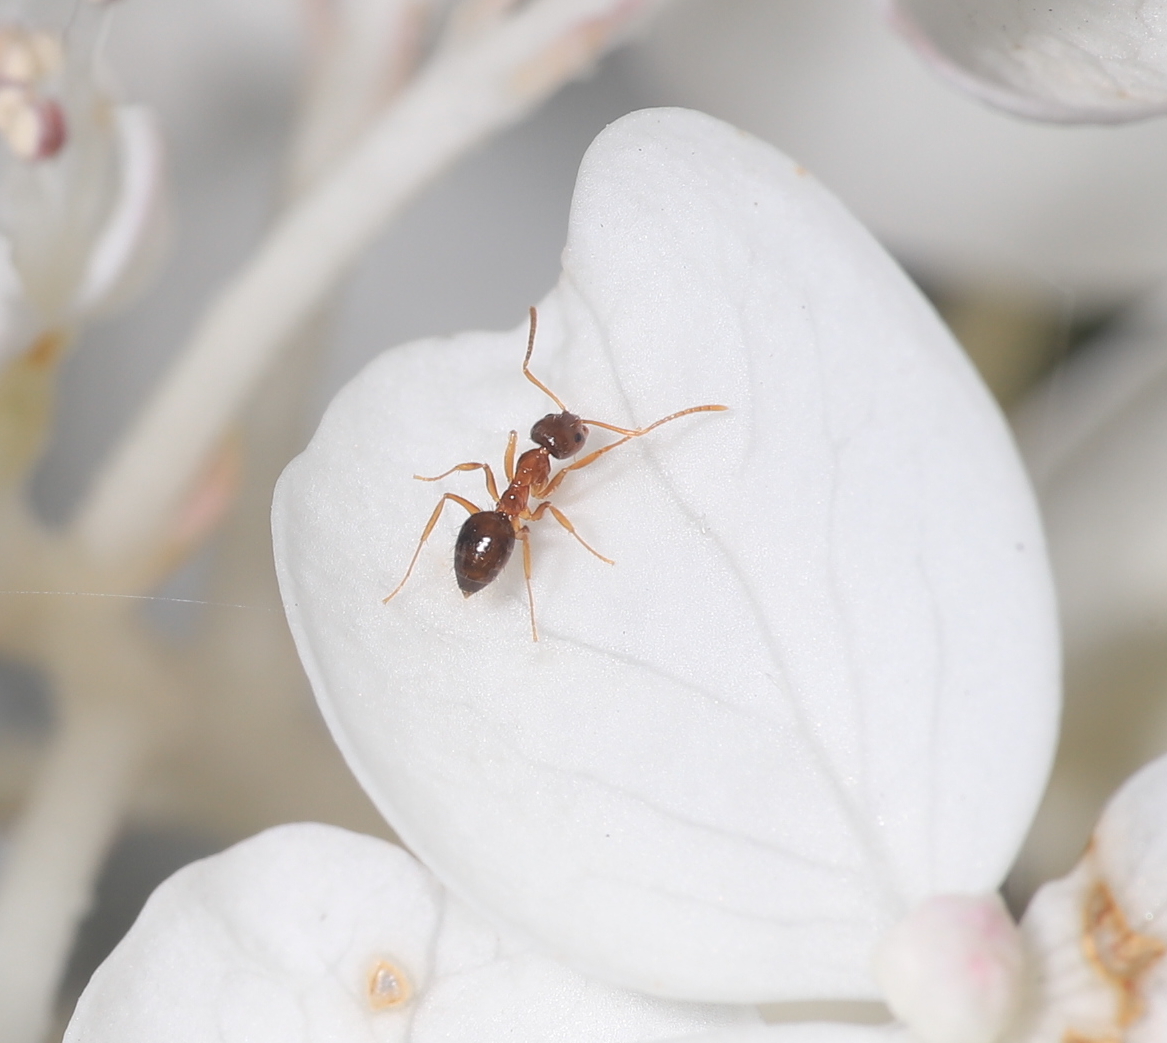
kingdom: Animalia
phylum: Arthropoda
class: Insecta
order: Hymenoptera
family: Formicidae
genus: Paratrechina
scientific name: Paratrechina flavipes
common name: Eastern asian formicine ant
